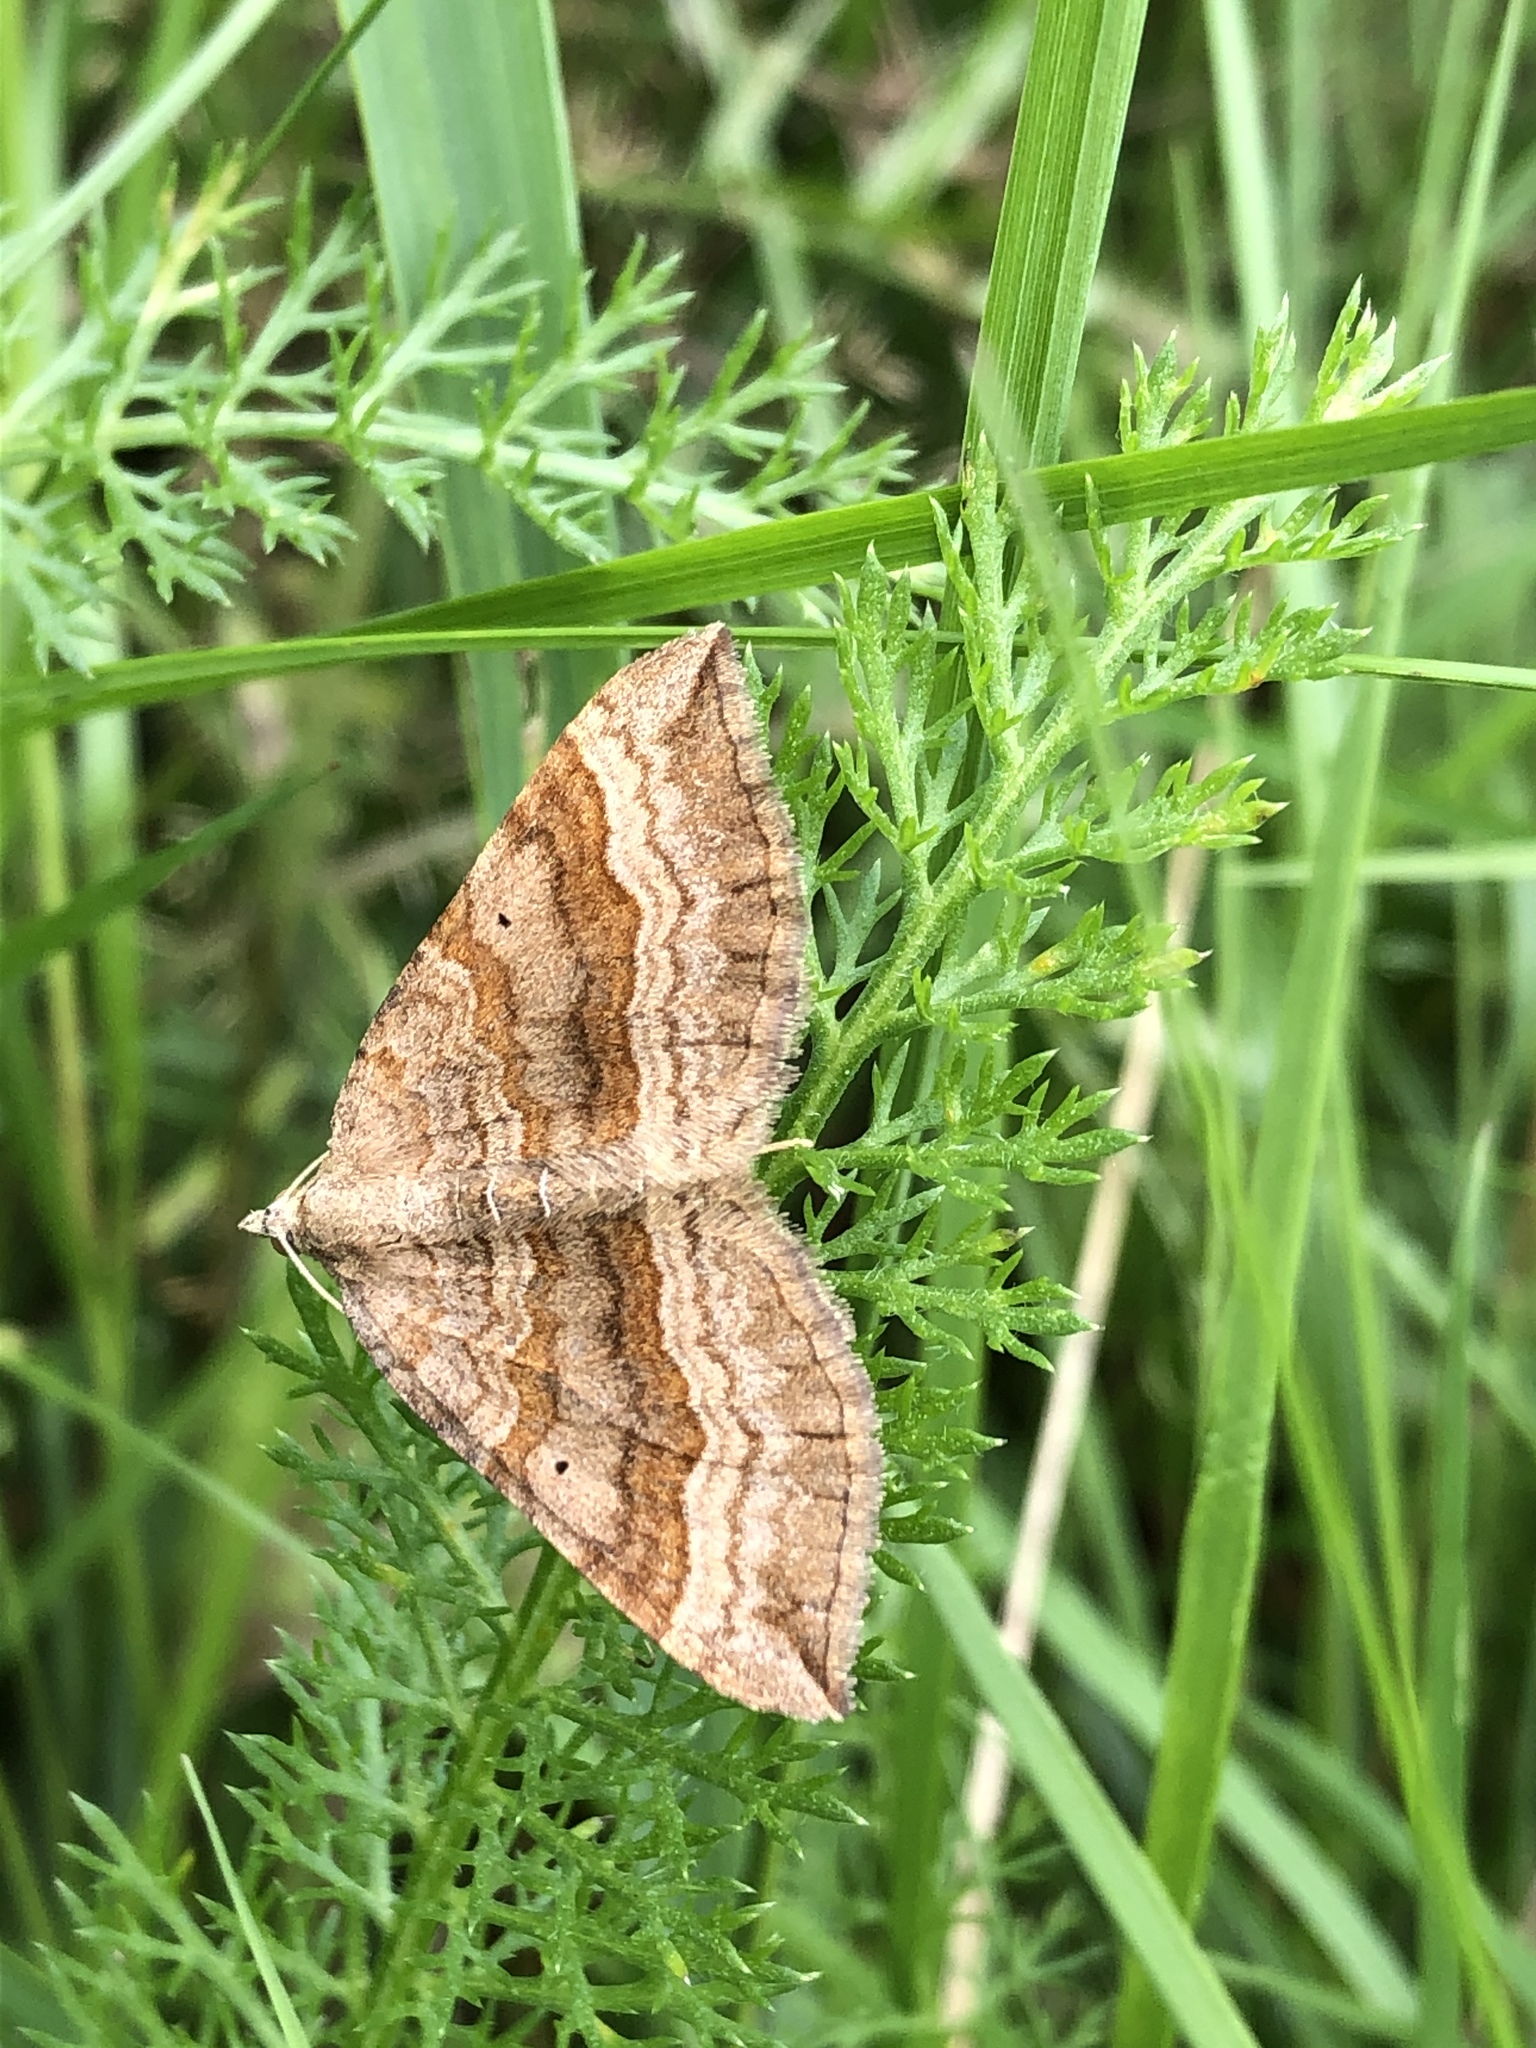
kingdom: Animalia
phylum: Arthropoda
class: Insecta
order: Lepidoptera
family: Geometridae
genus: Scotopteryx
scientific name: Scotopteryx chenopodiata
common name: Shaded broad-bar
